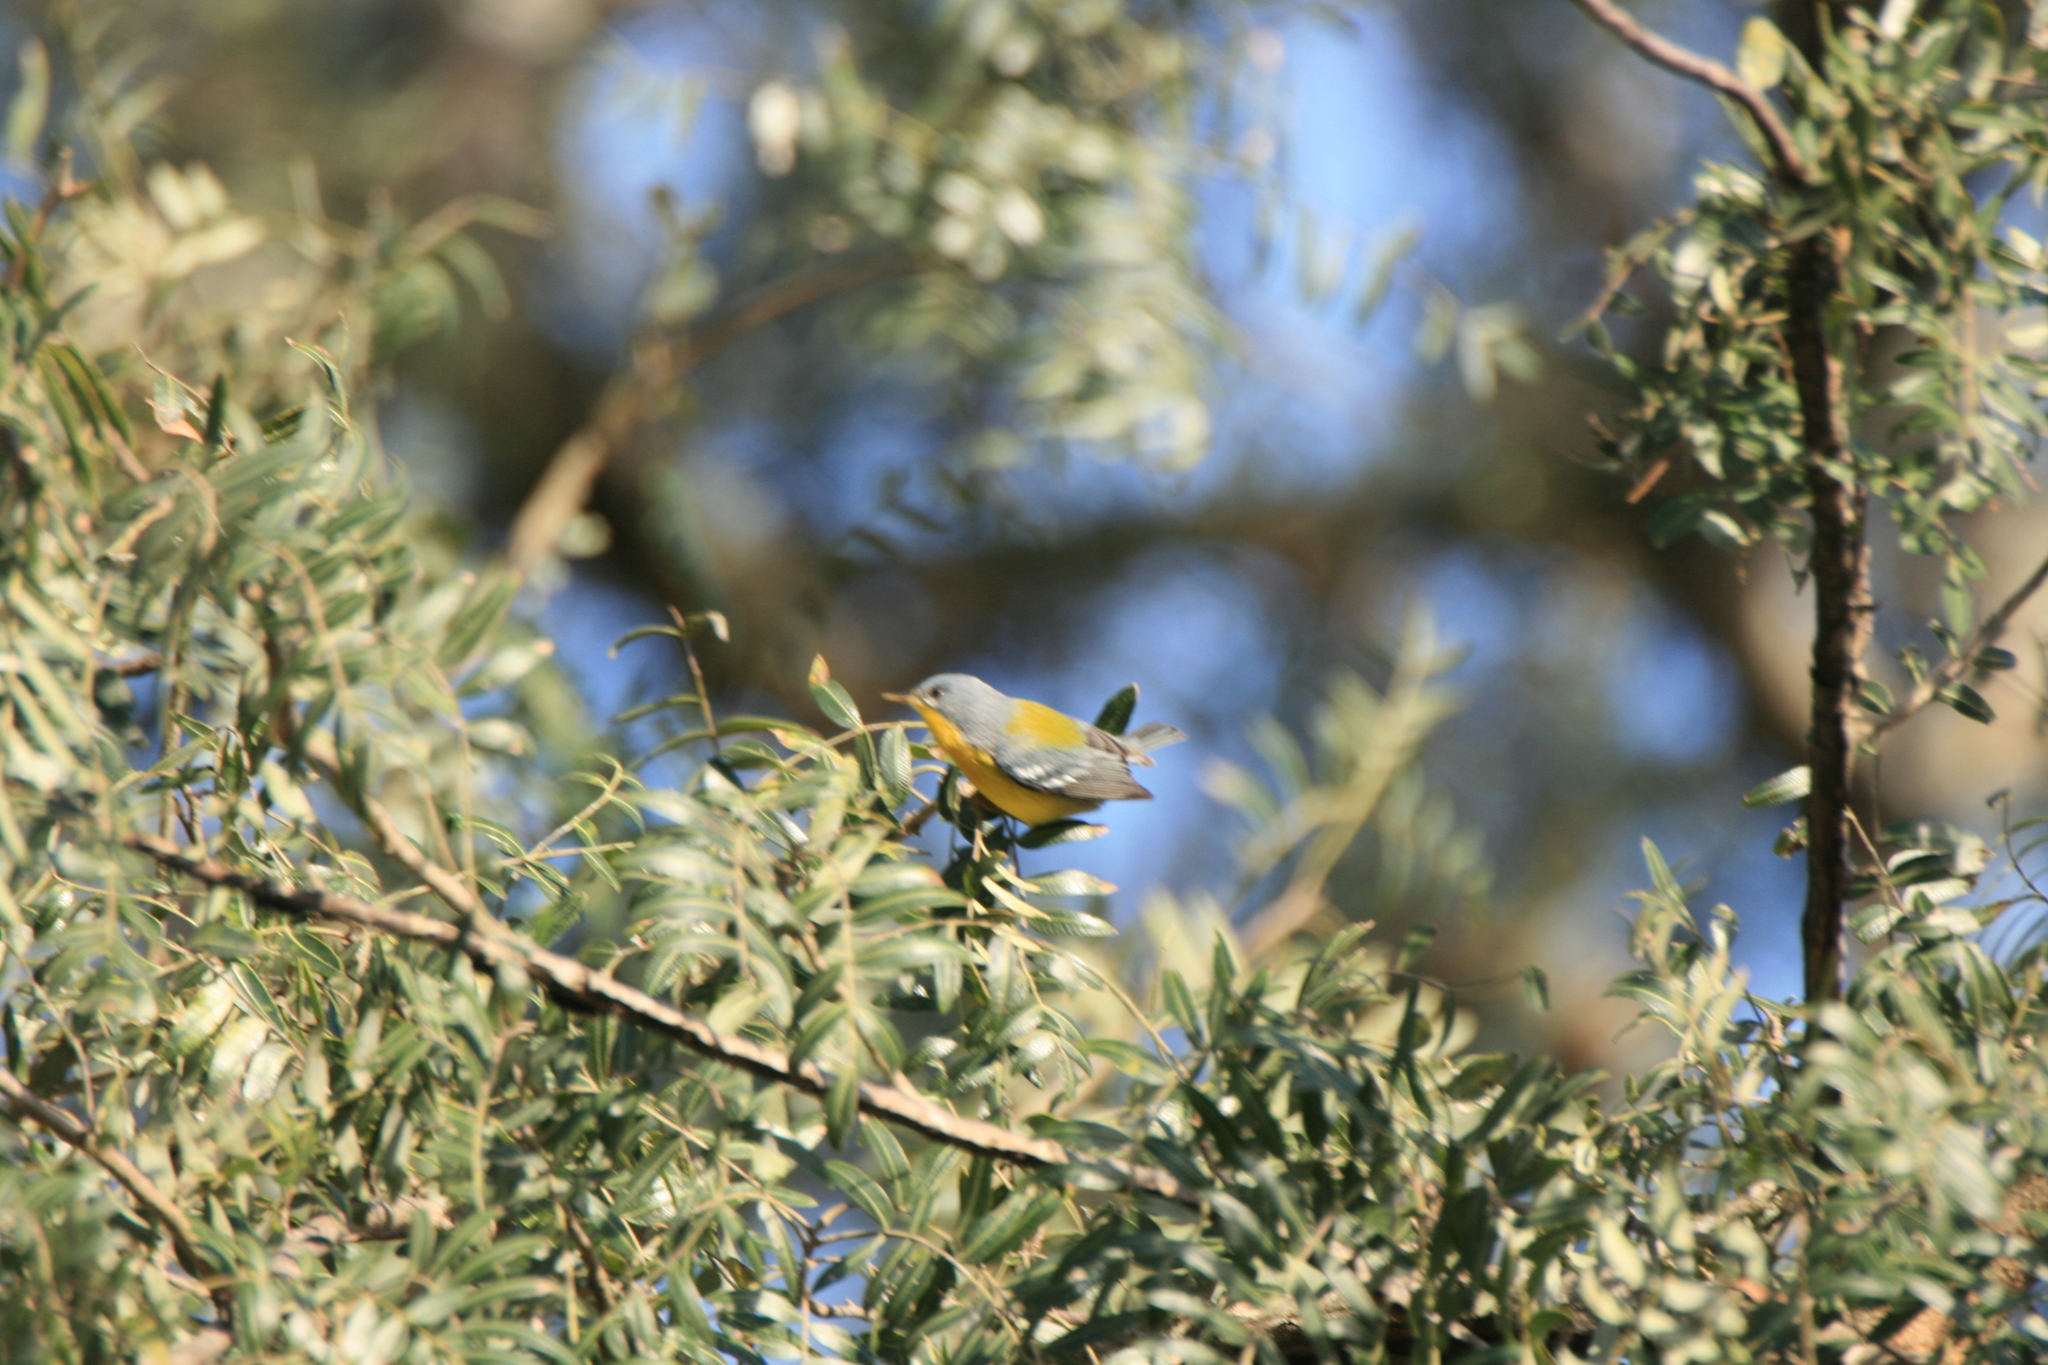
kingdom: Animalia
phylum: Chordata
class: Aves
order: Passeriformes
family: Parulidae
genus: Setophaga
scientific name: Setophaga pitiayumi
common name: Tropical parula
